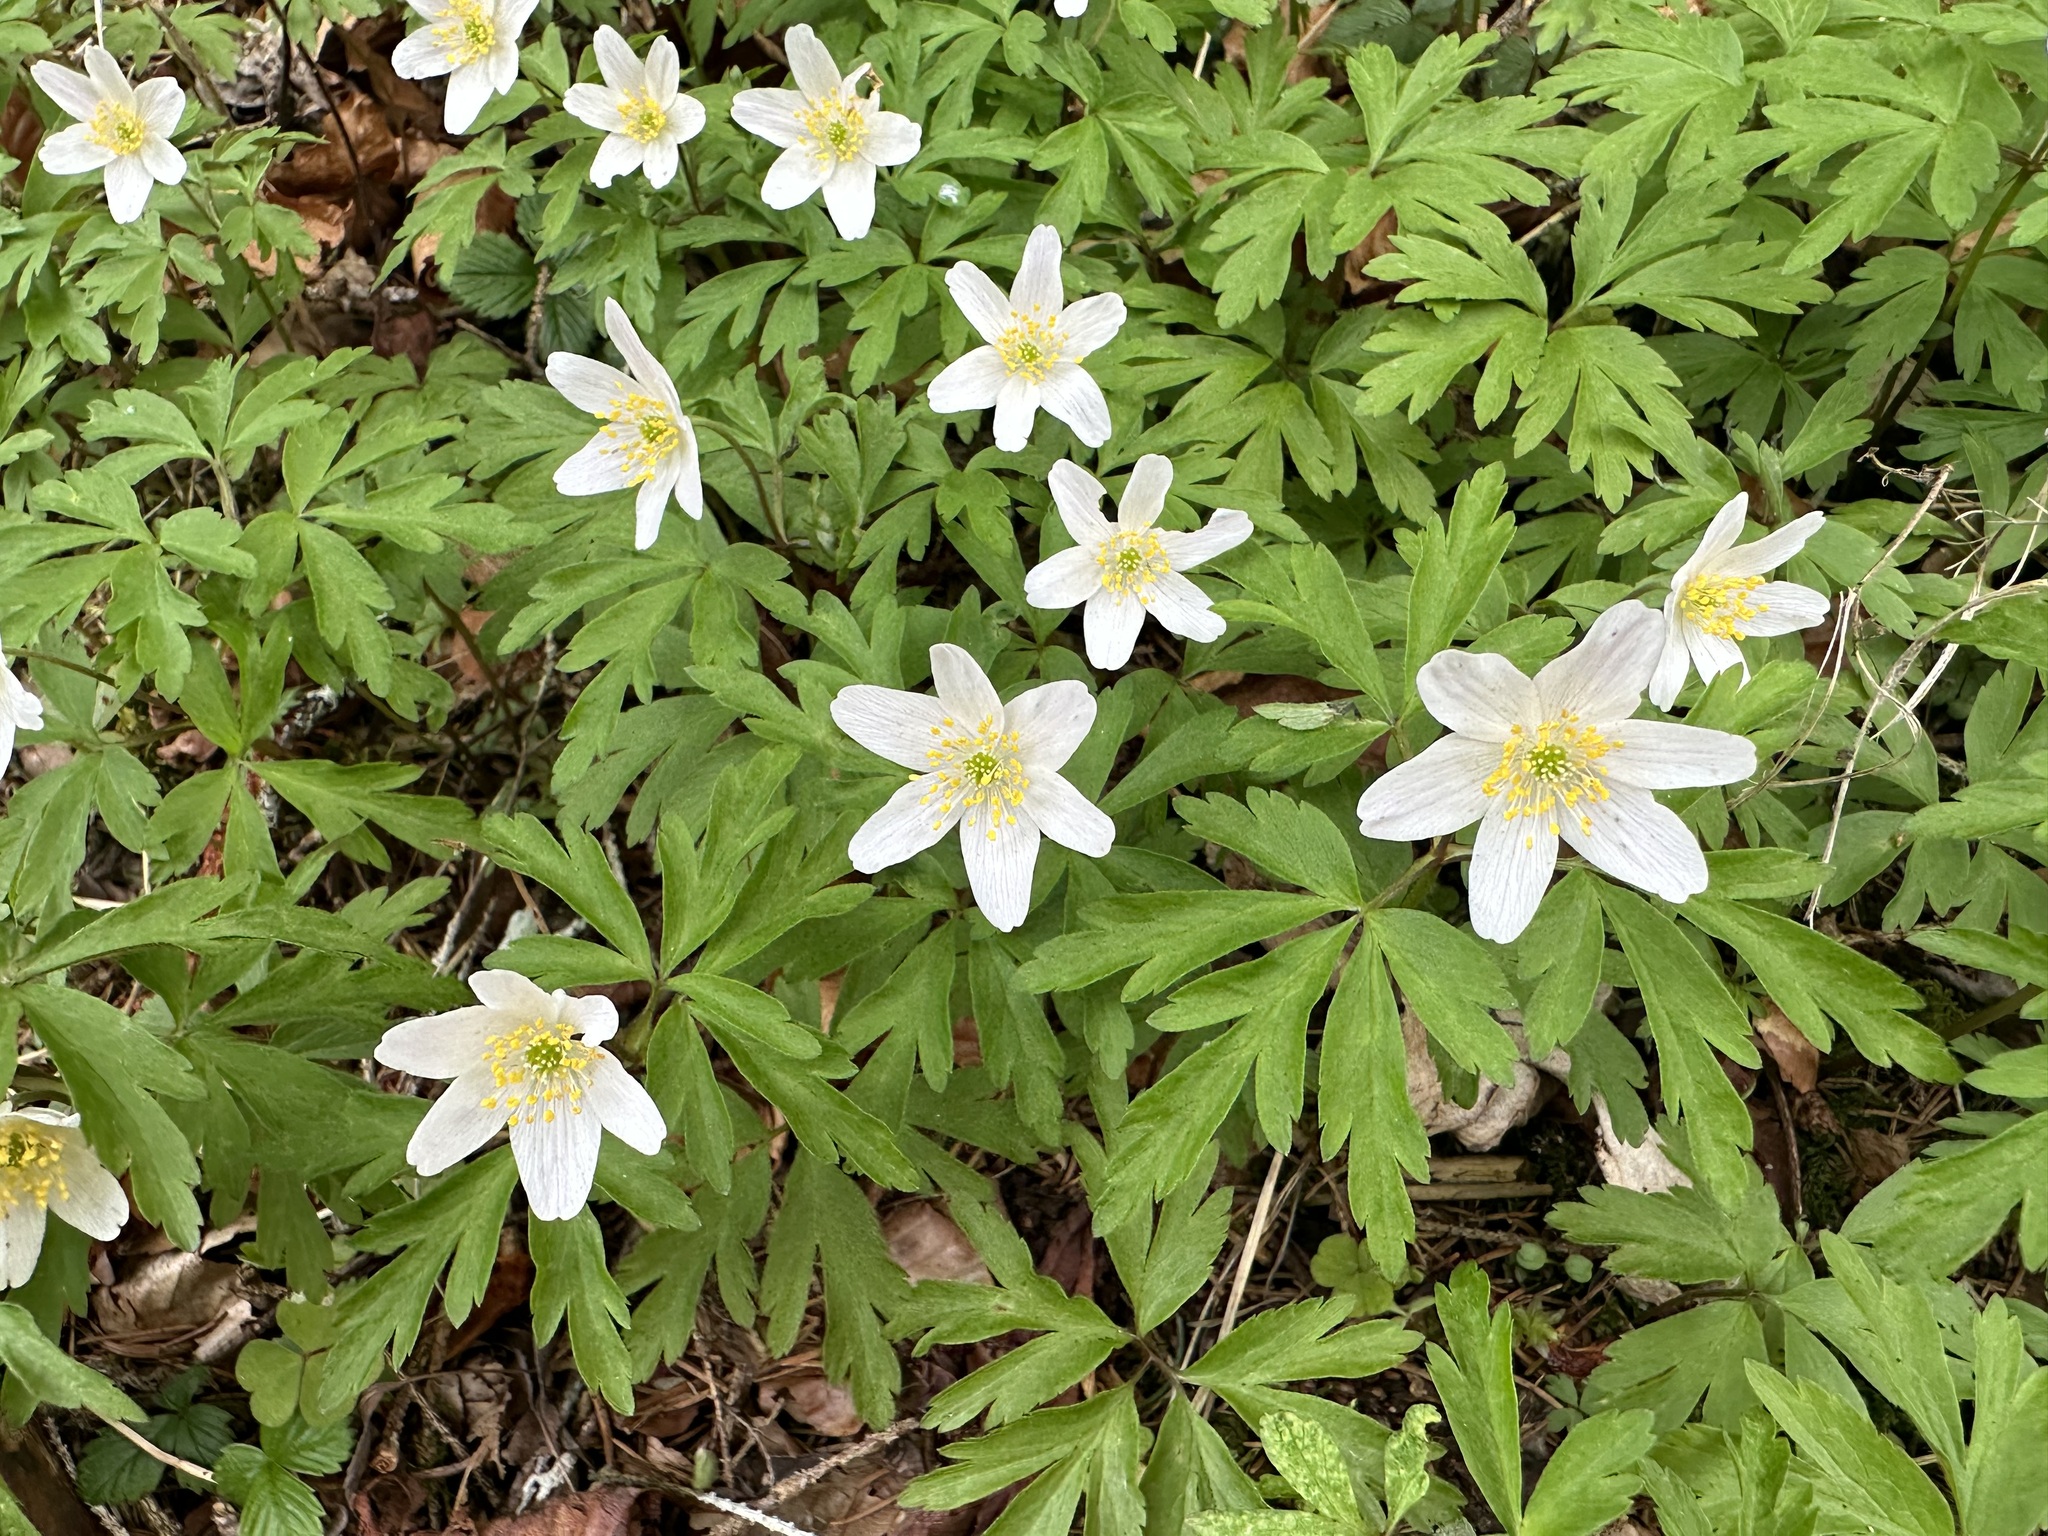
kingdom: Plantae
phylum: Tracheophyta
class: Magnoliopsida
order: Ranunculales
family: Ranunculaceae
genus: Anemone
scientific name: Anemone nemorosa
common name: Wood anemone
